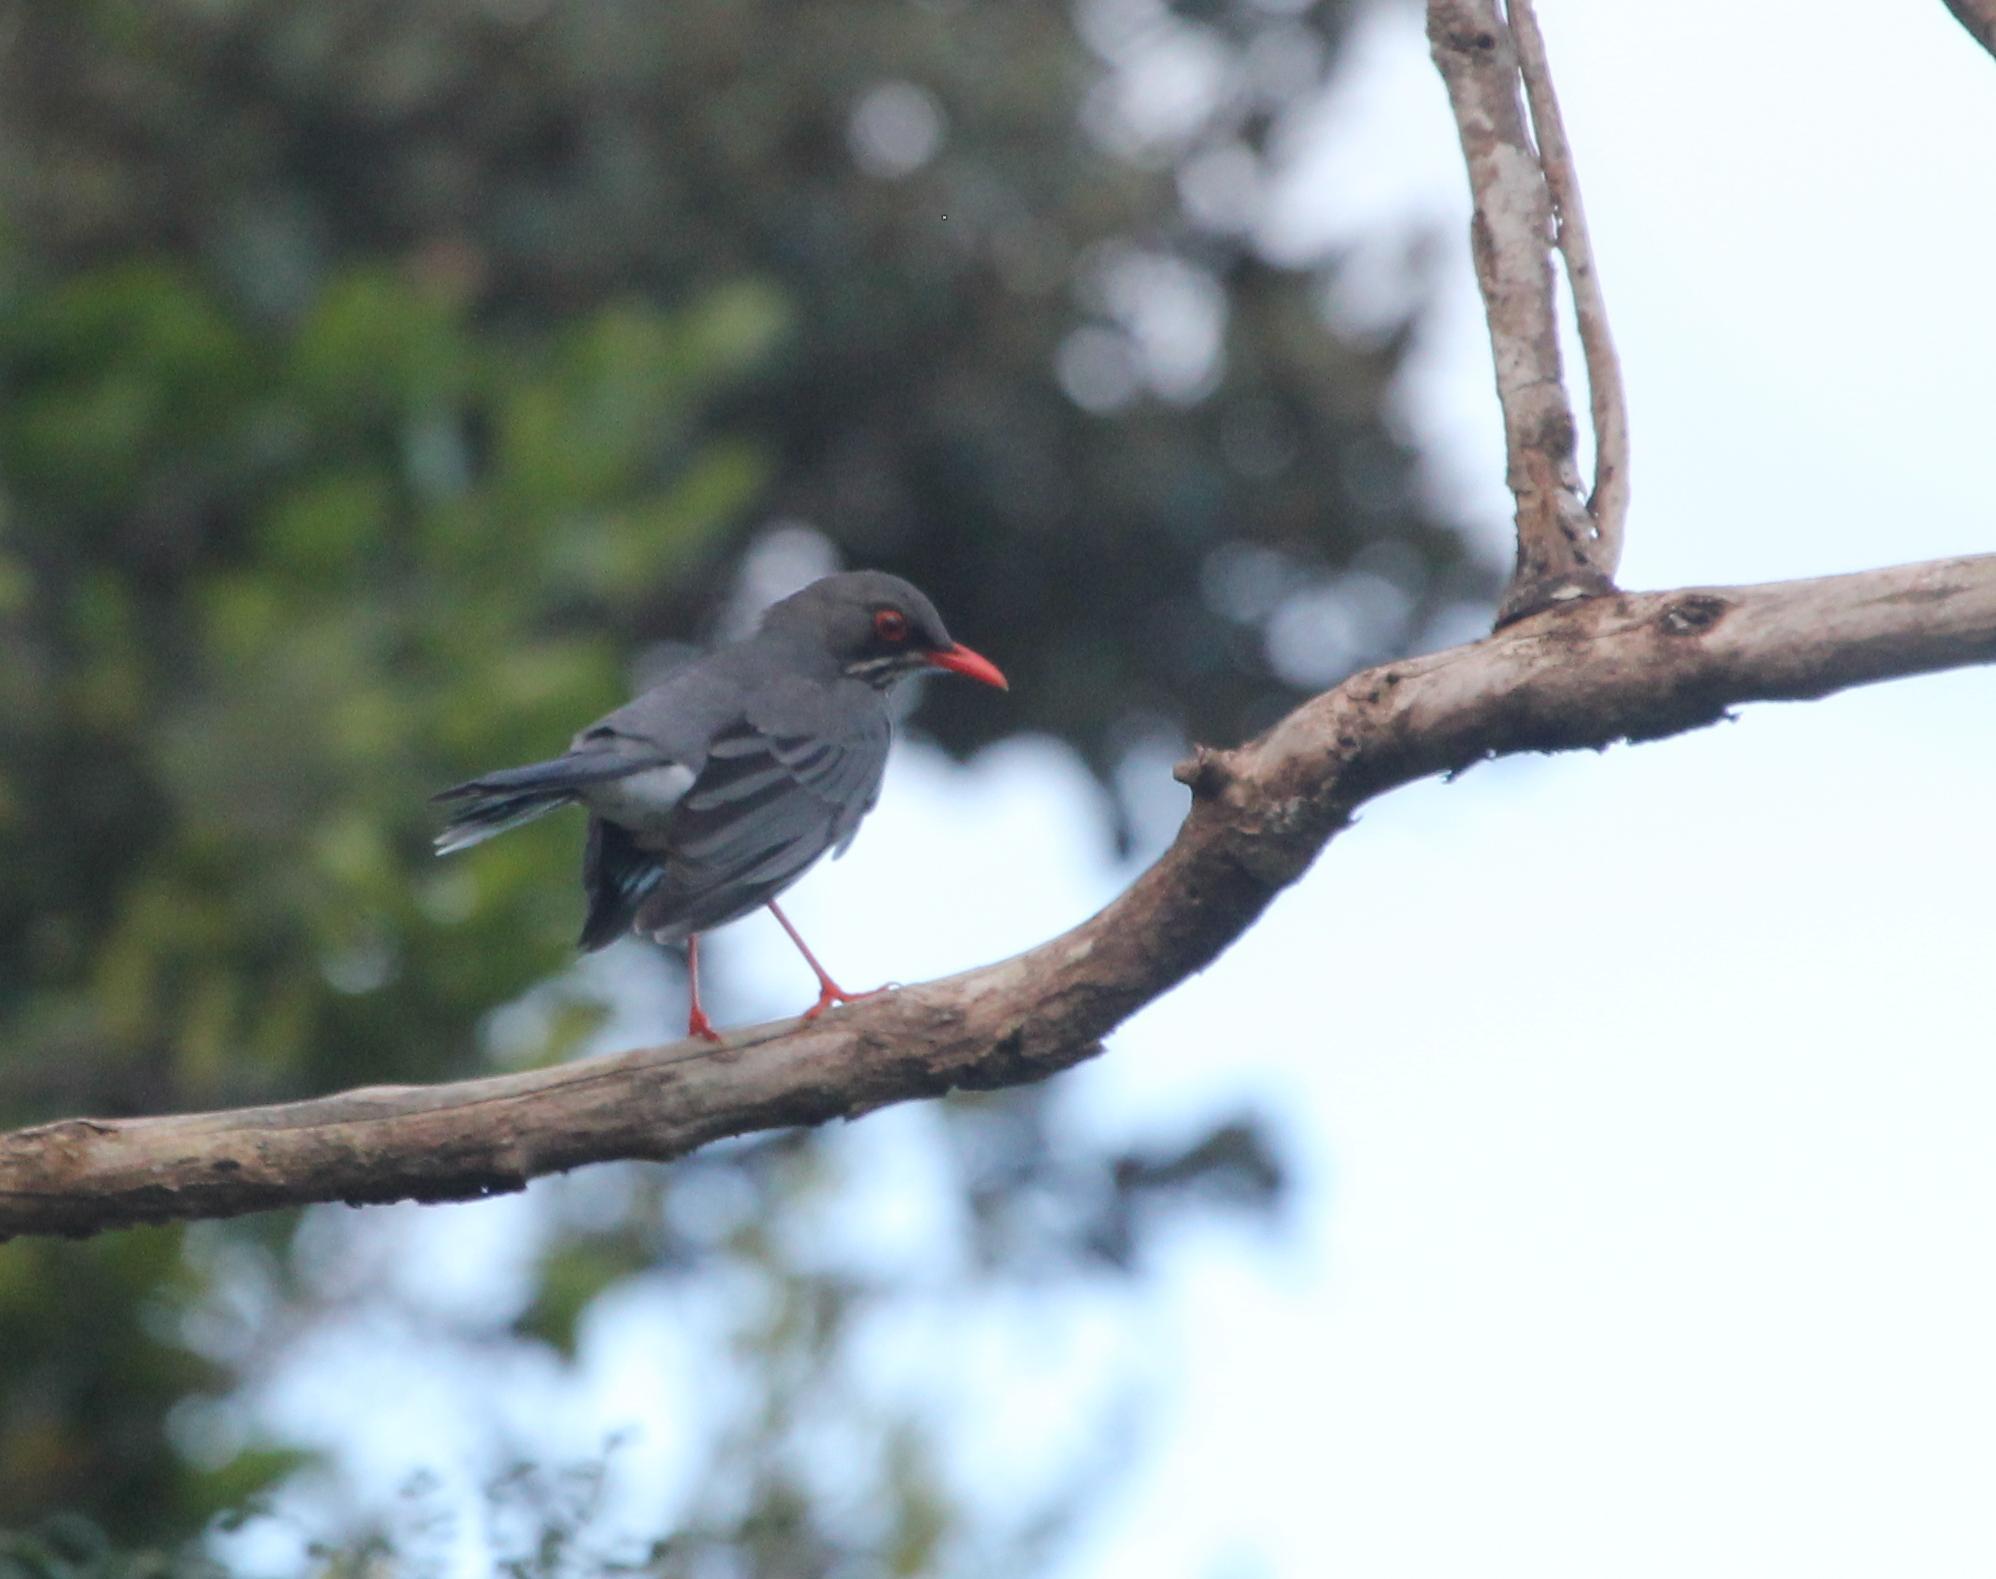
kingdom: Animalia
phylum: Chordata
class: Aves
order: Passeriformes
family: Turdidae
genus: Turdus
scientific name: Turdus plumbeus
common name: Red-legged thrush
